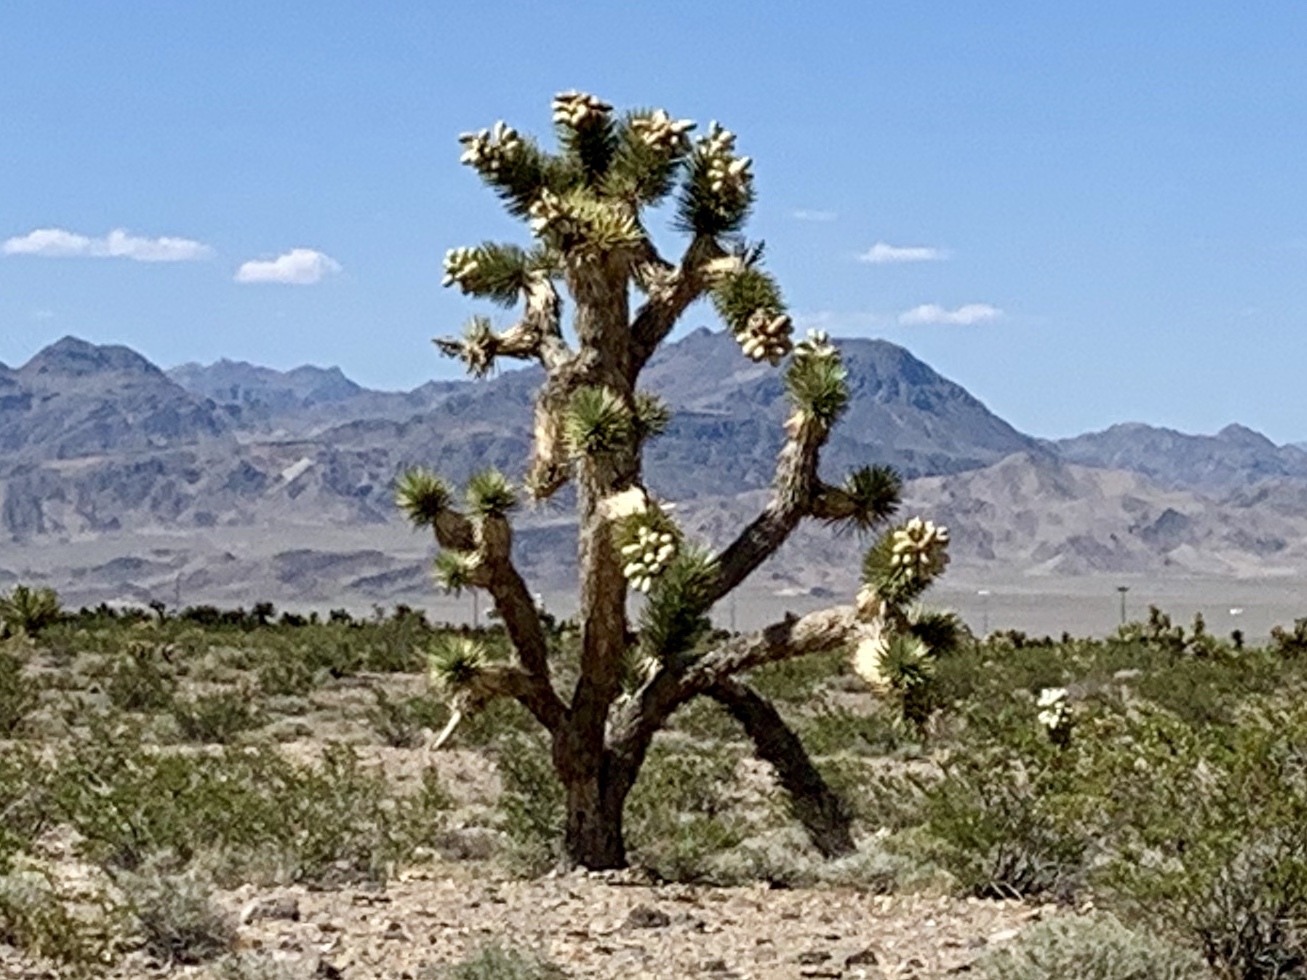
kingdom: Plantae
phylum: Tracheophyta
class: Liliopsida
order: Asparagales
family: Asparagaceae
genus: Yucca
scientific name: Yucca brevifolia
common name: Joshua tree
